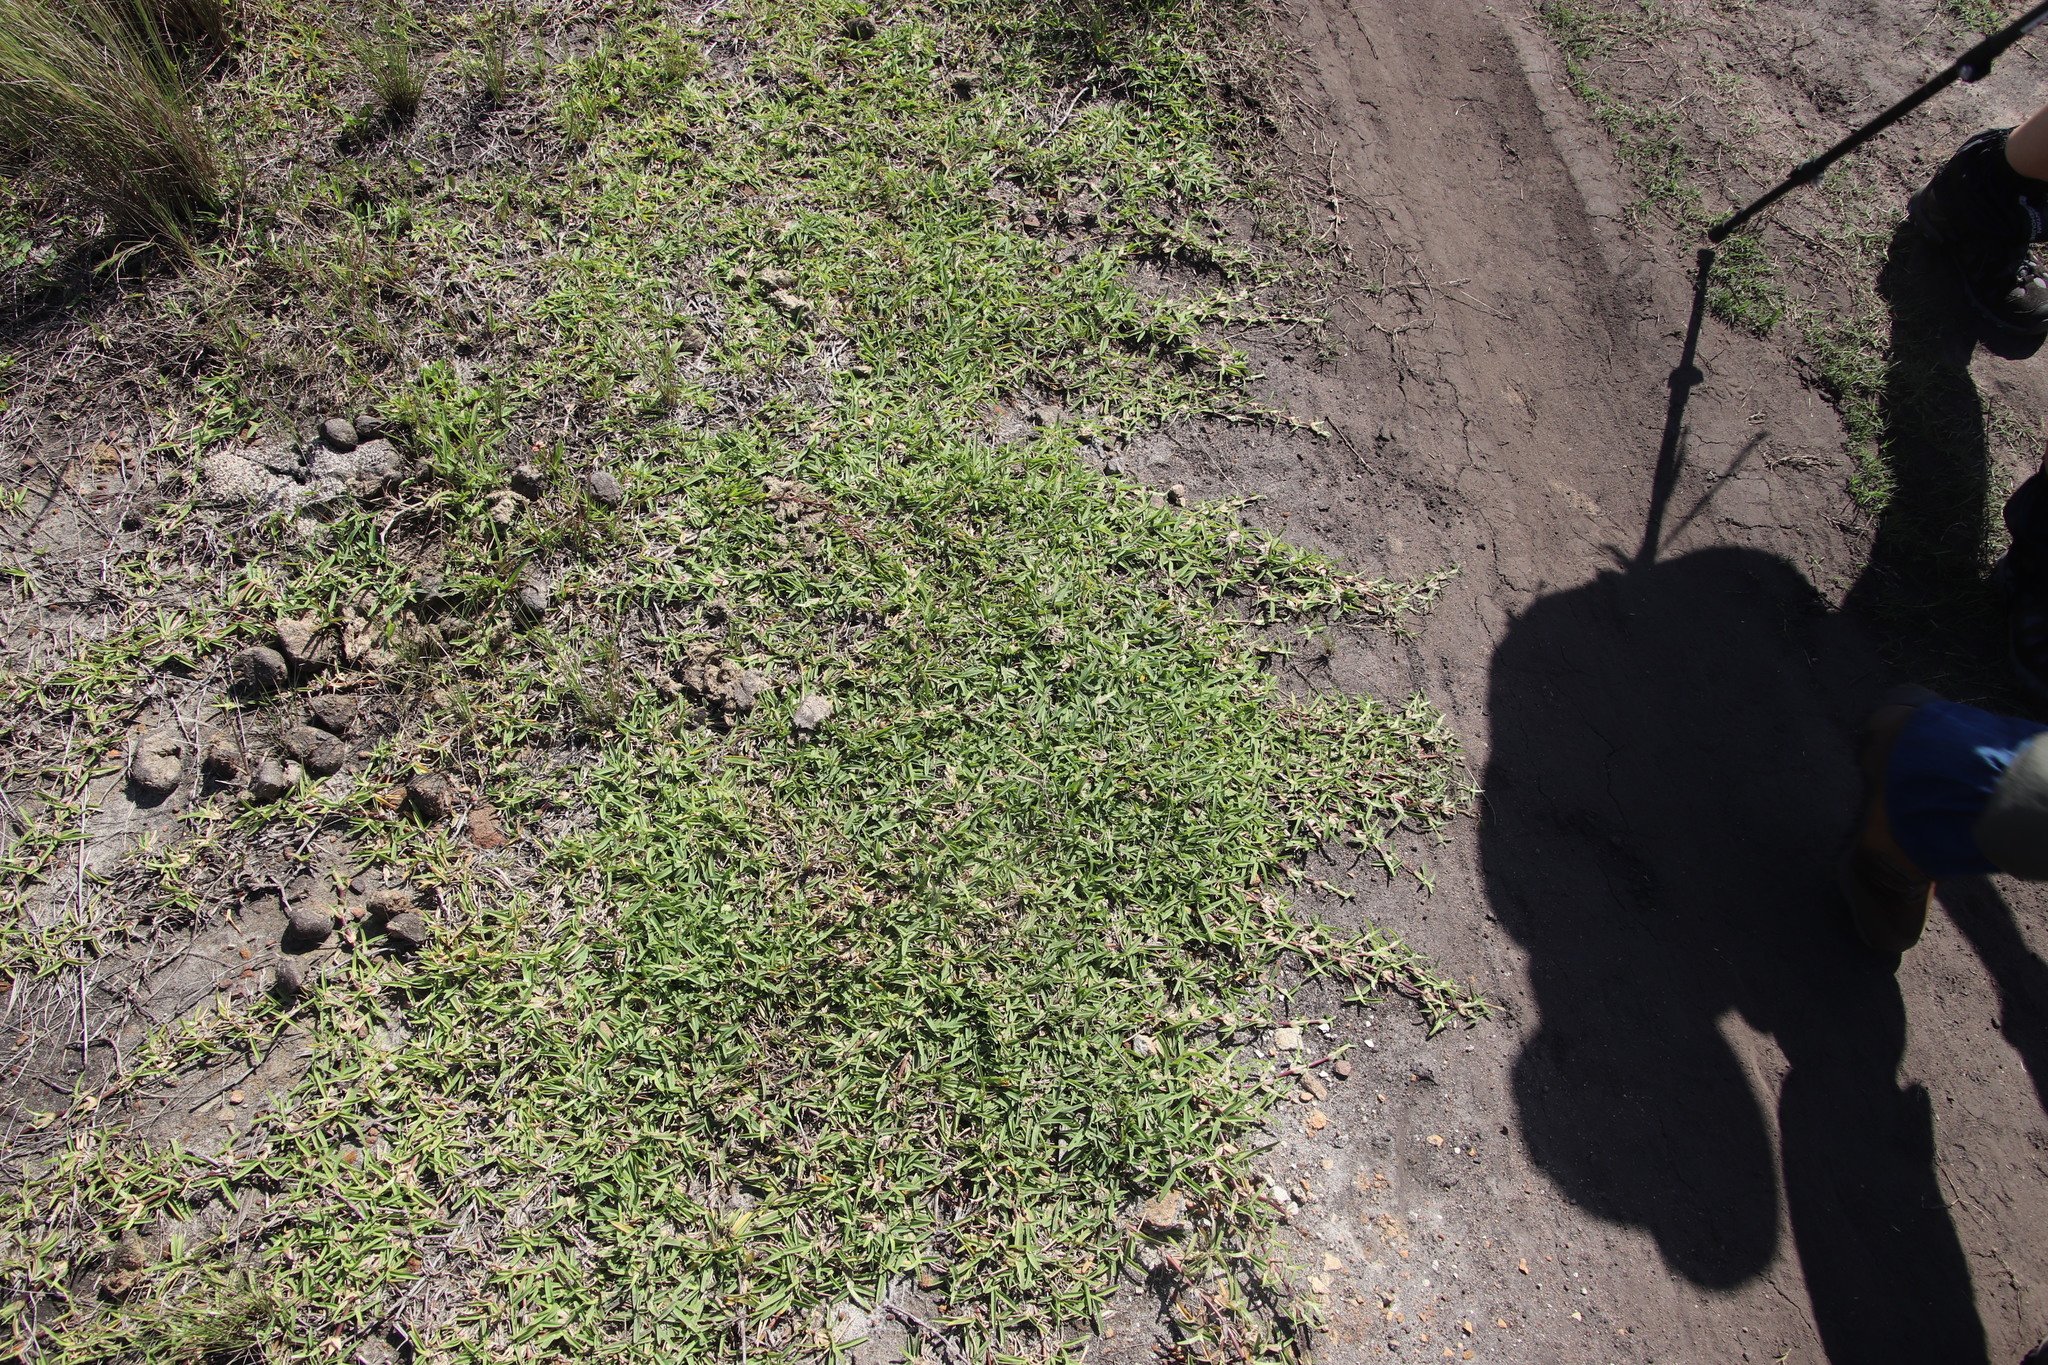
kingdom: Plantae
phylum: Tracheophyta
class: Liliopsida
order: Poales
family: Poaceae
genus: Stenotaphrum
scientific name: Stenotaphrum secundatum
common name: St. augustine grass
